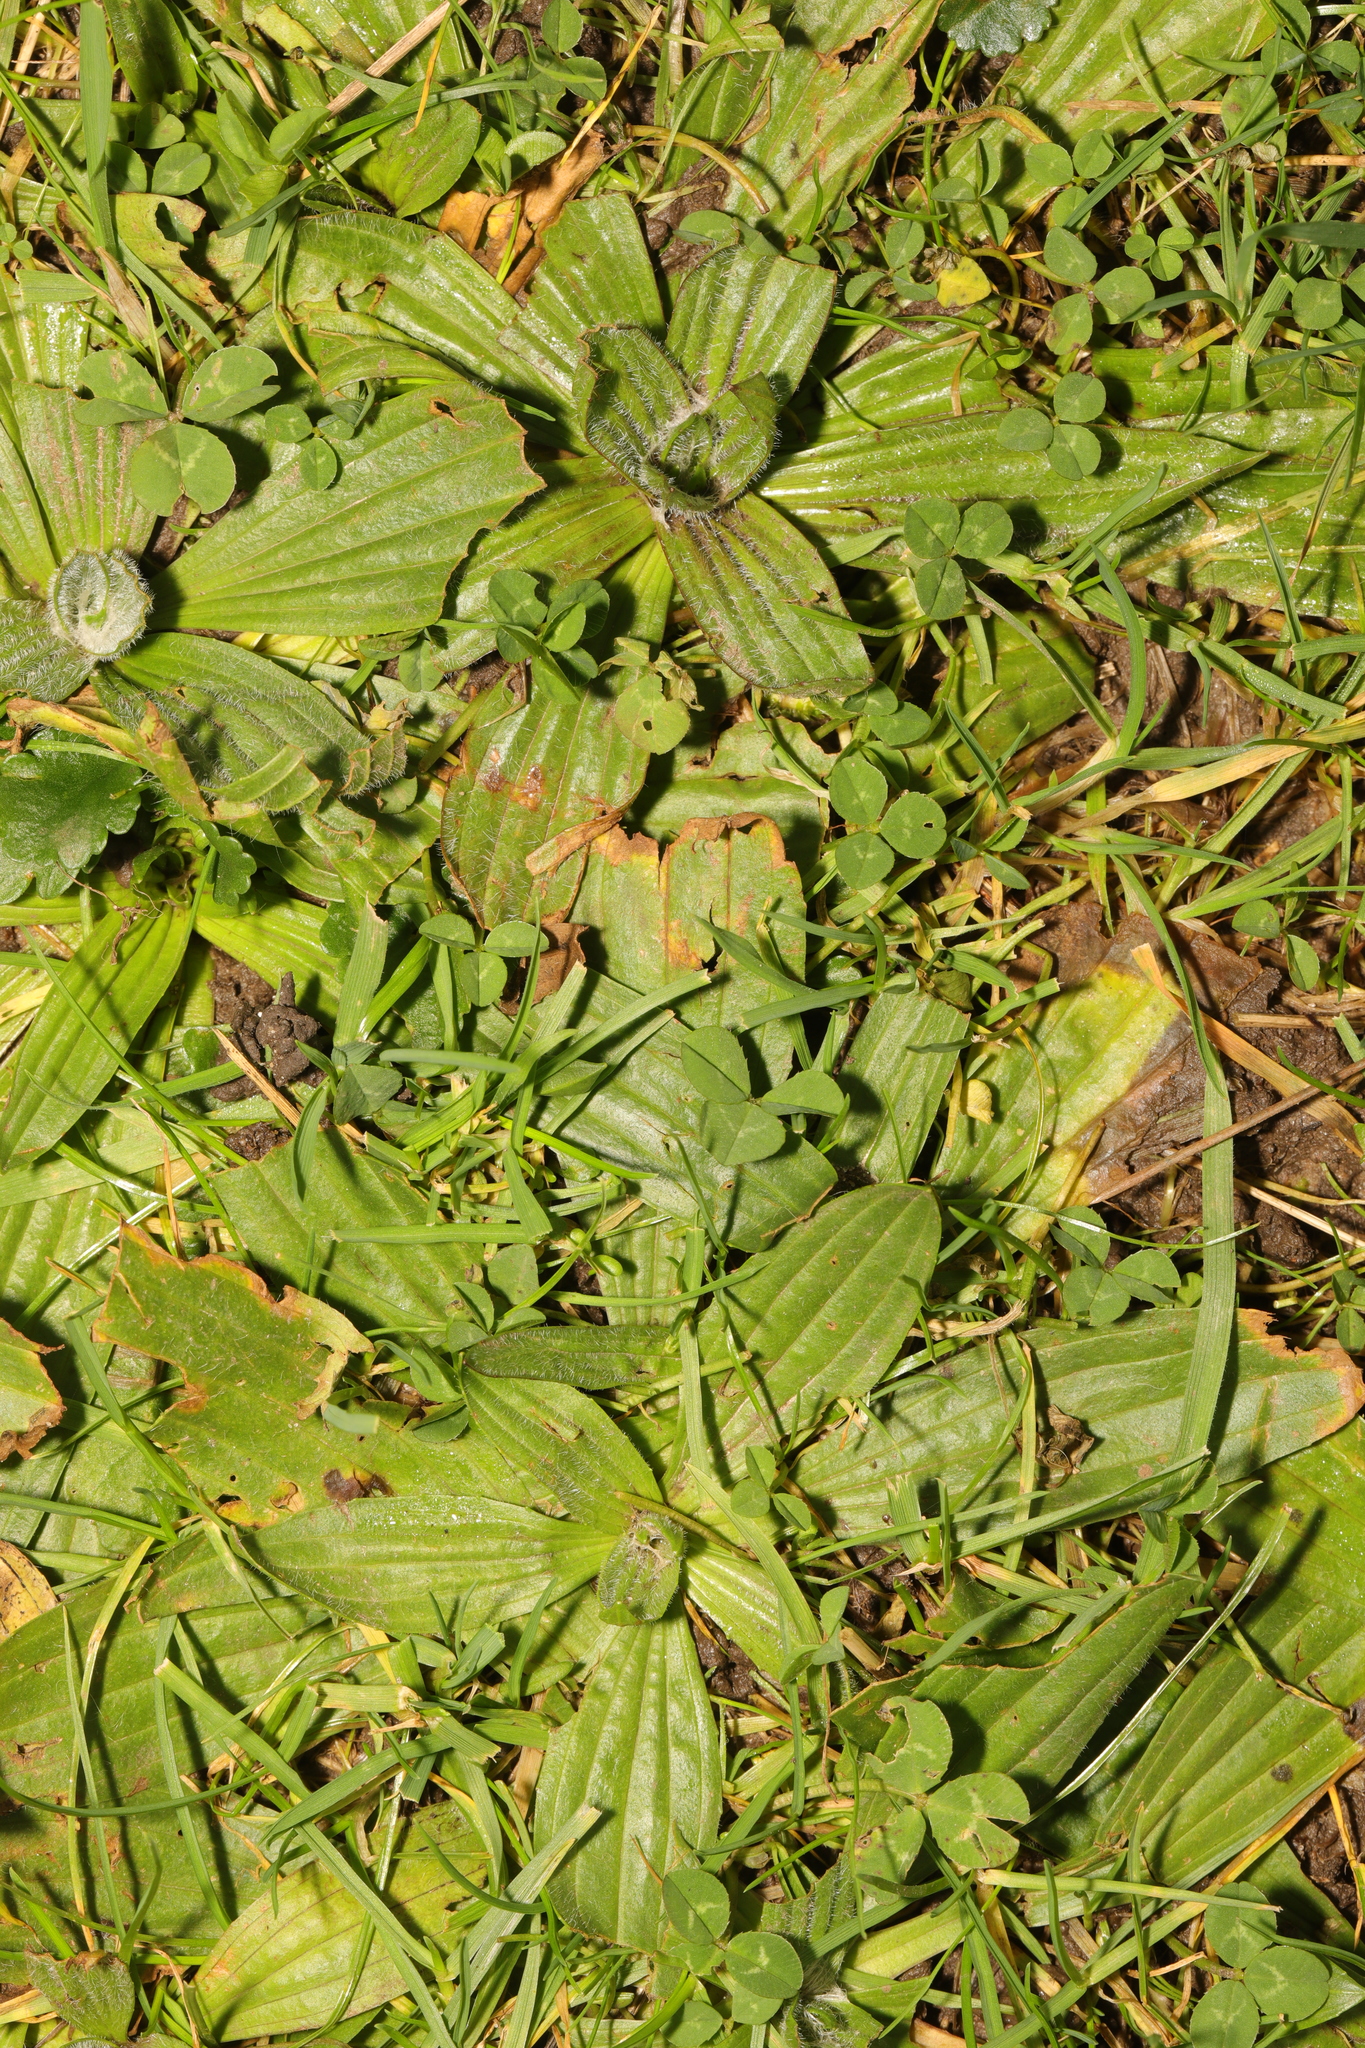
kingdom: Plantae
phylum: Tracheophyta
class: Magnoliopsida
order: Lamiales
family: Plantaginaceae
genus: Plantago
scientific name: Plantago media
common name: Hoary plantain
